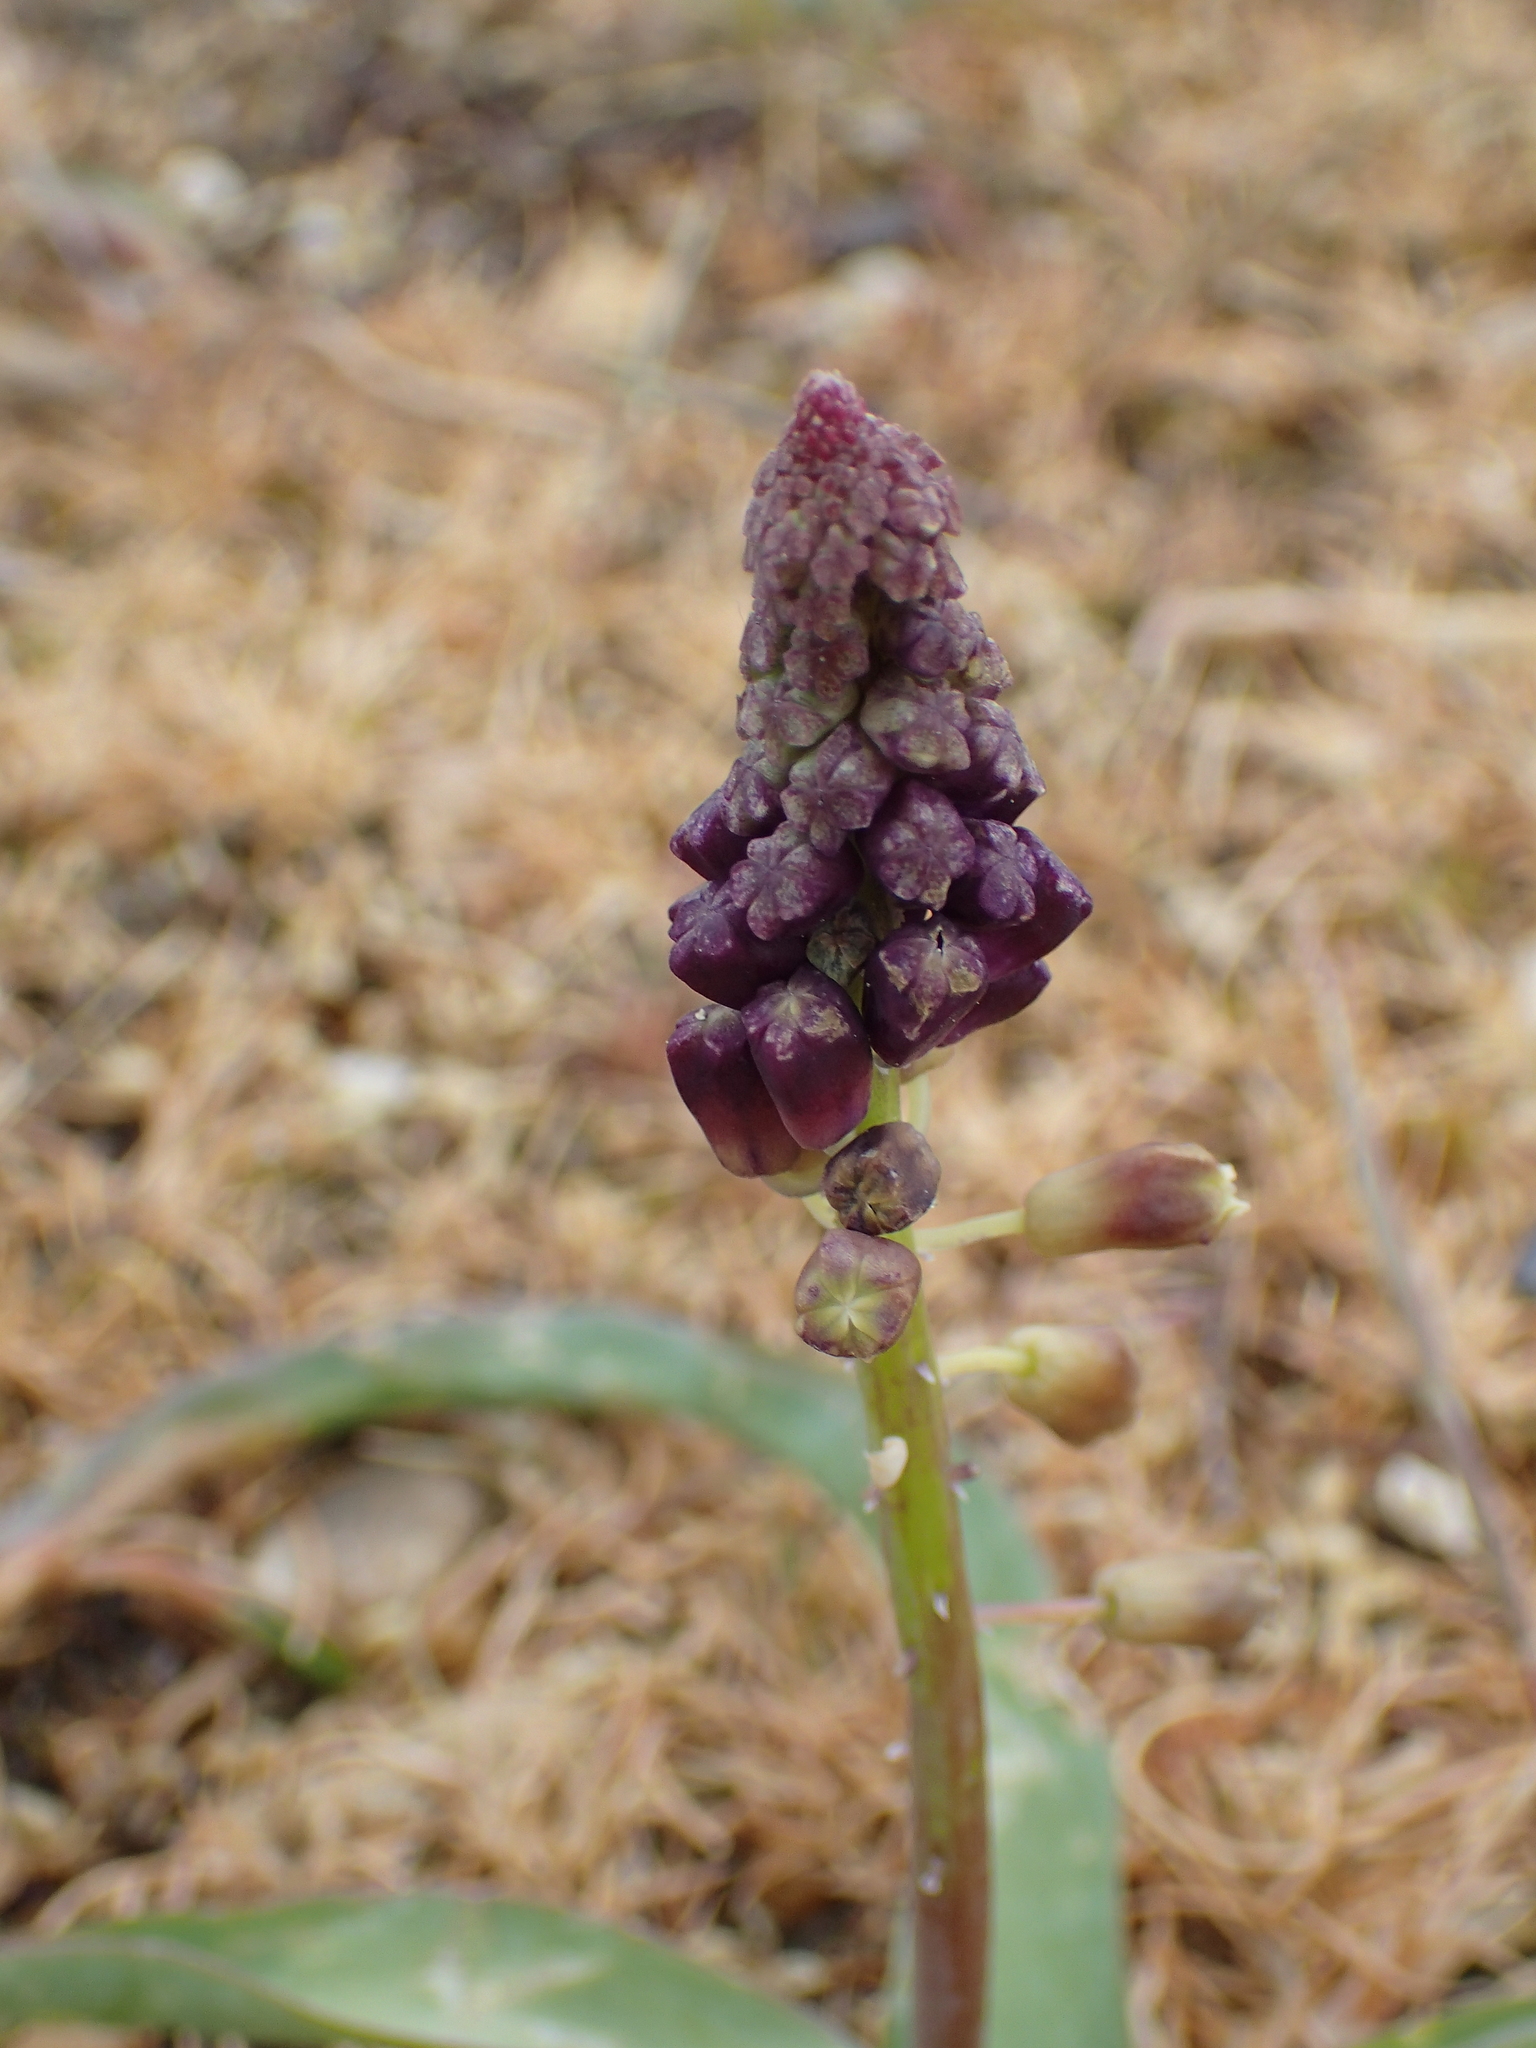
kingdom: Plantae
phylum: Tracheophyta
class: Liliopsida
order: Asparagales
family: Asparagaceae
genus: Muscari
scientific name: Muscari comosum
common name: Tassel hyacinth
